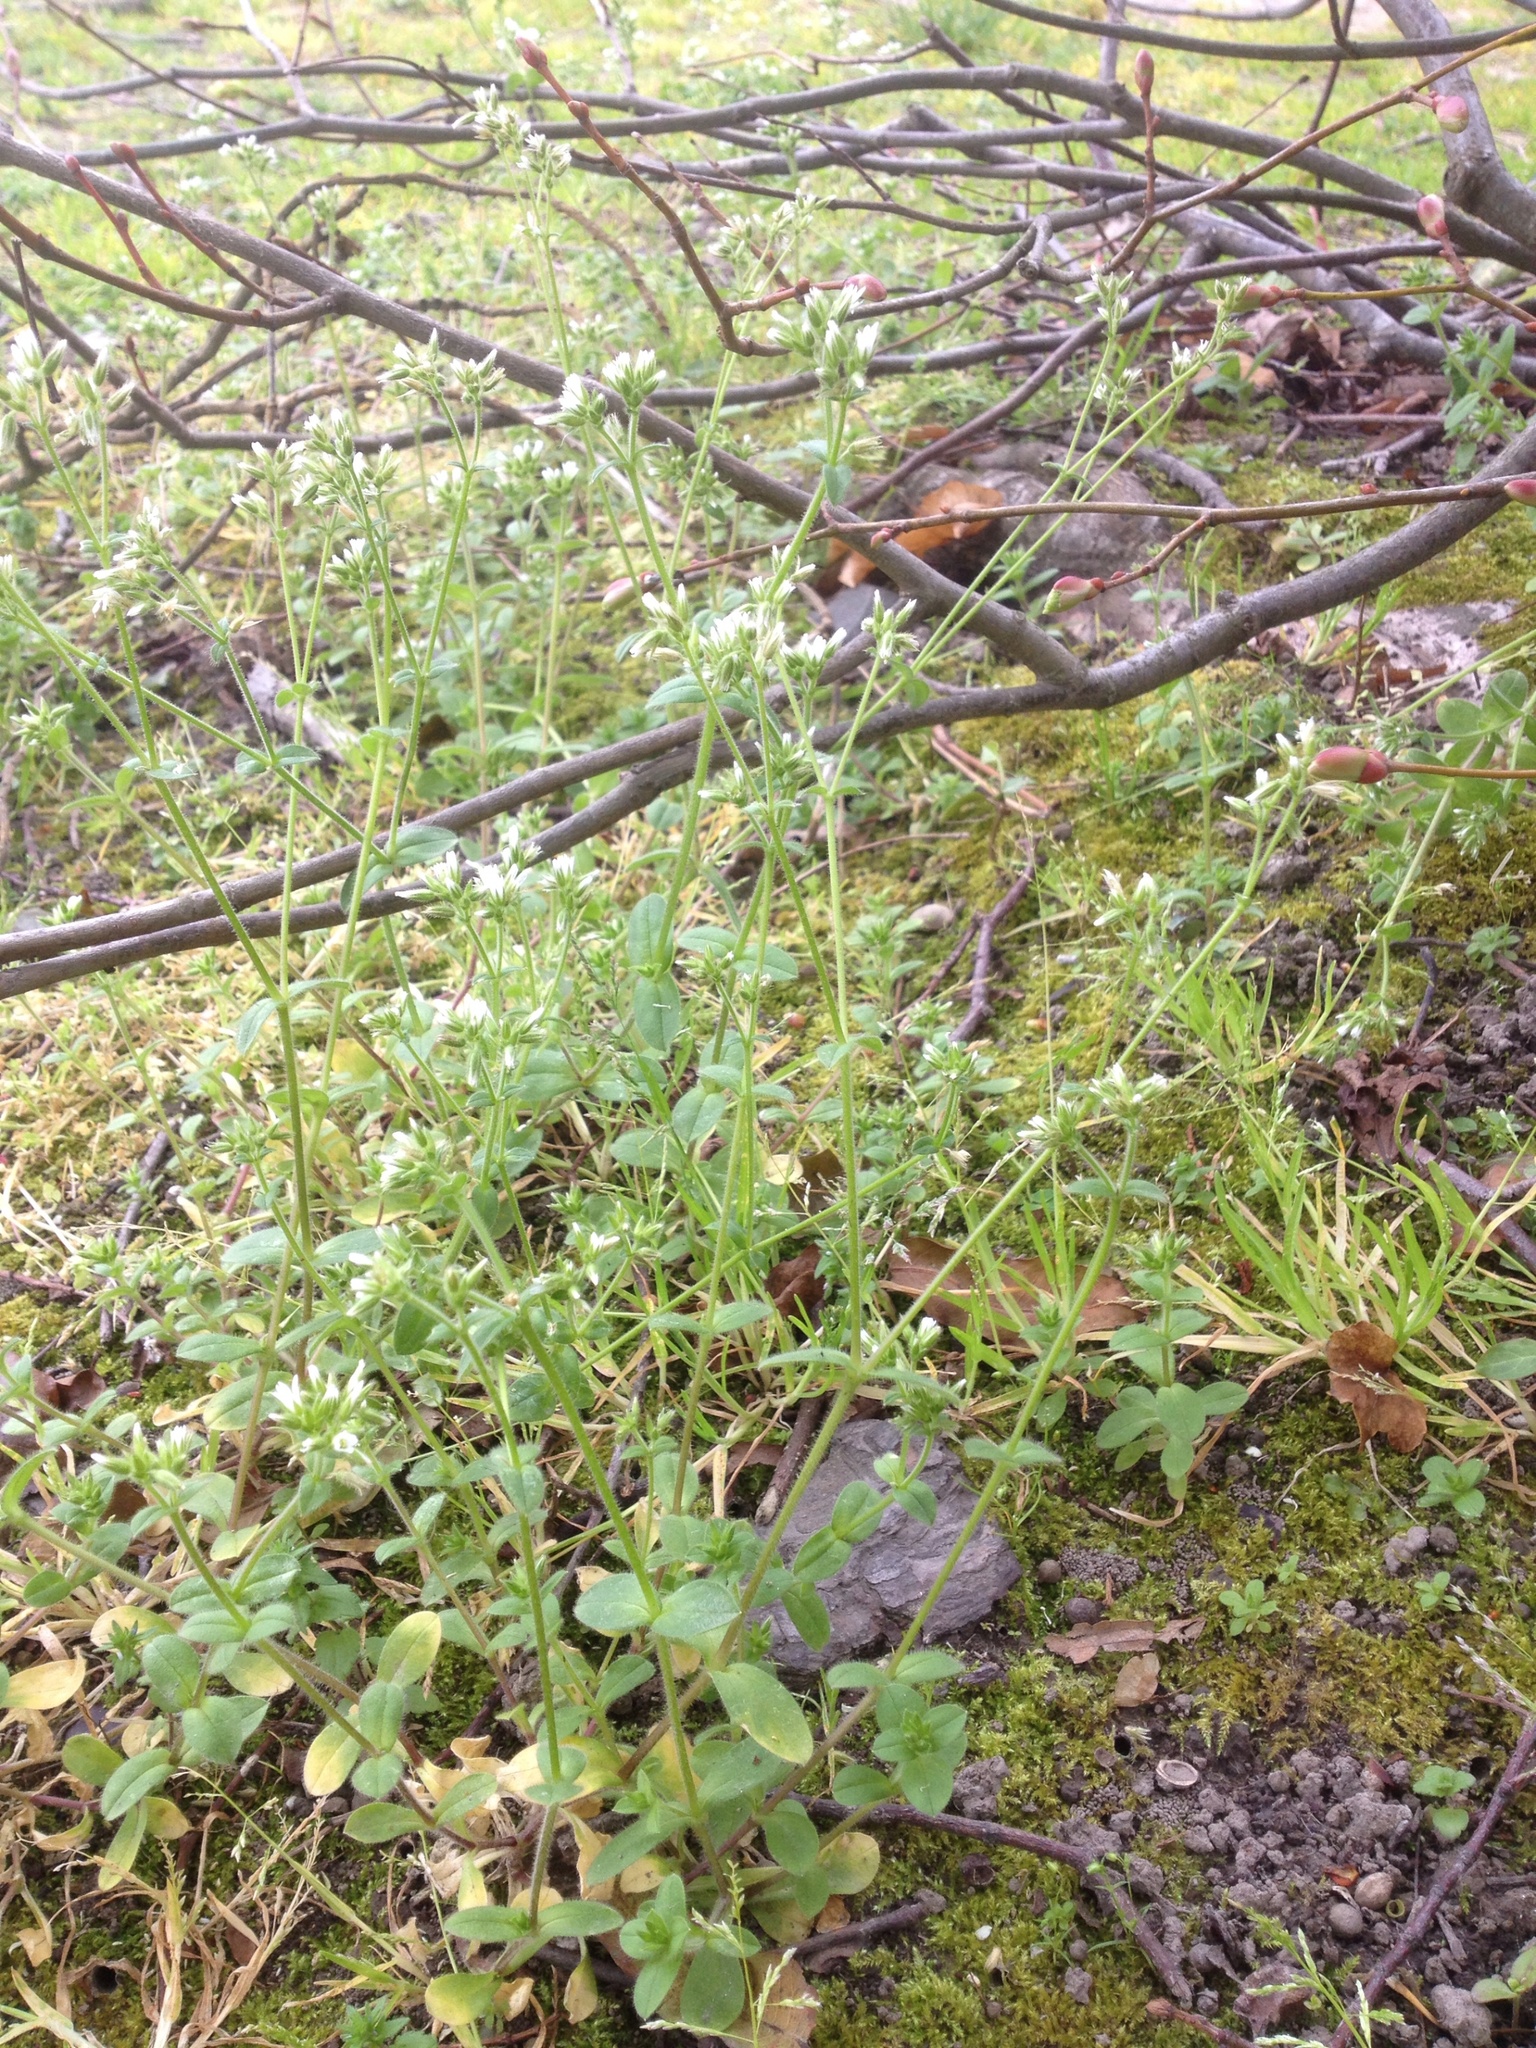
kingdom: Plantae
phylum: Tracheophyta
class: Magnoliopsida
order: Caryophyllales
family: Caryophyllaceae
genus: Cerastium
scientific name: Cerastium glomeratum
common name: Sticky chickweed
